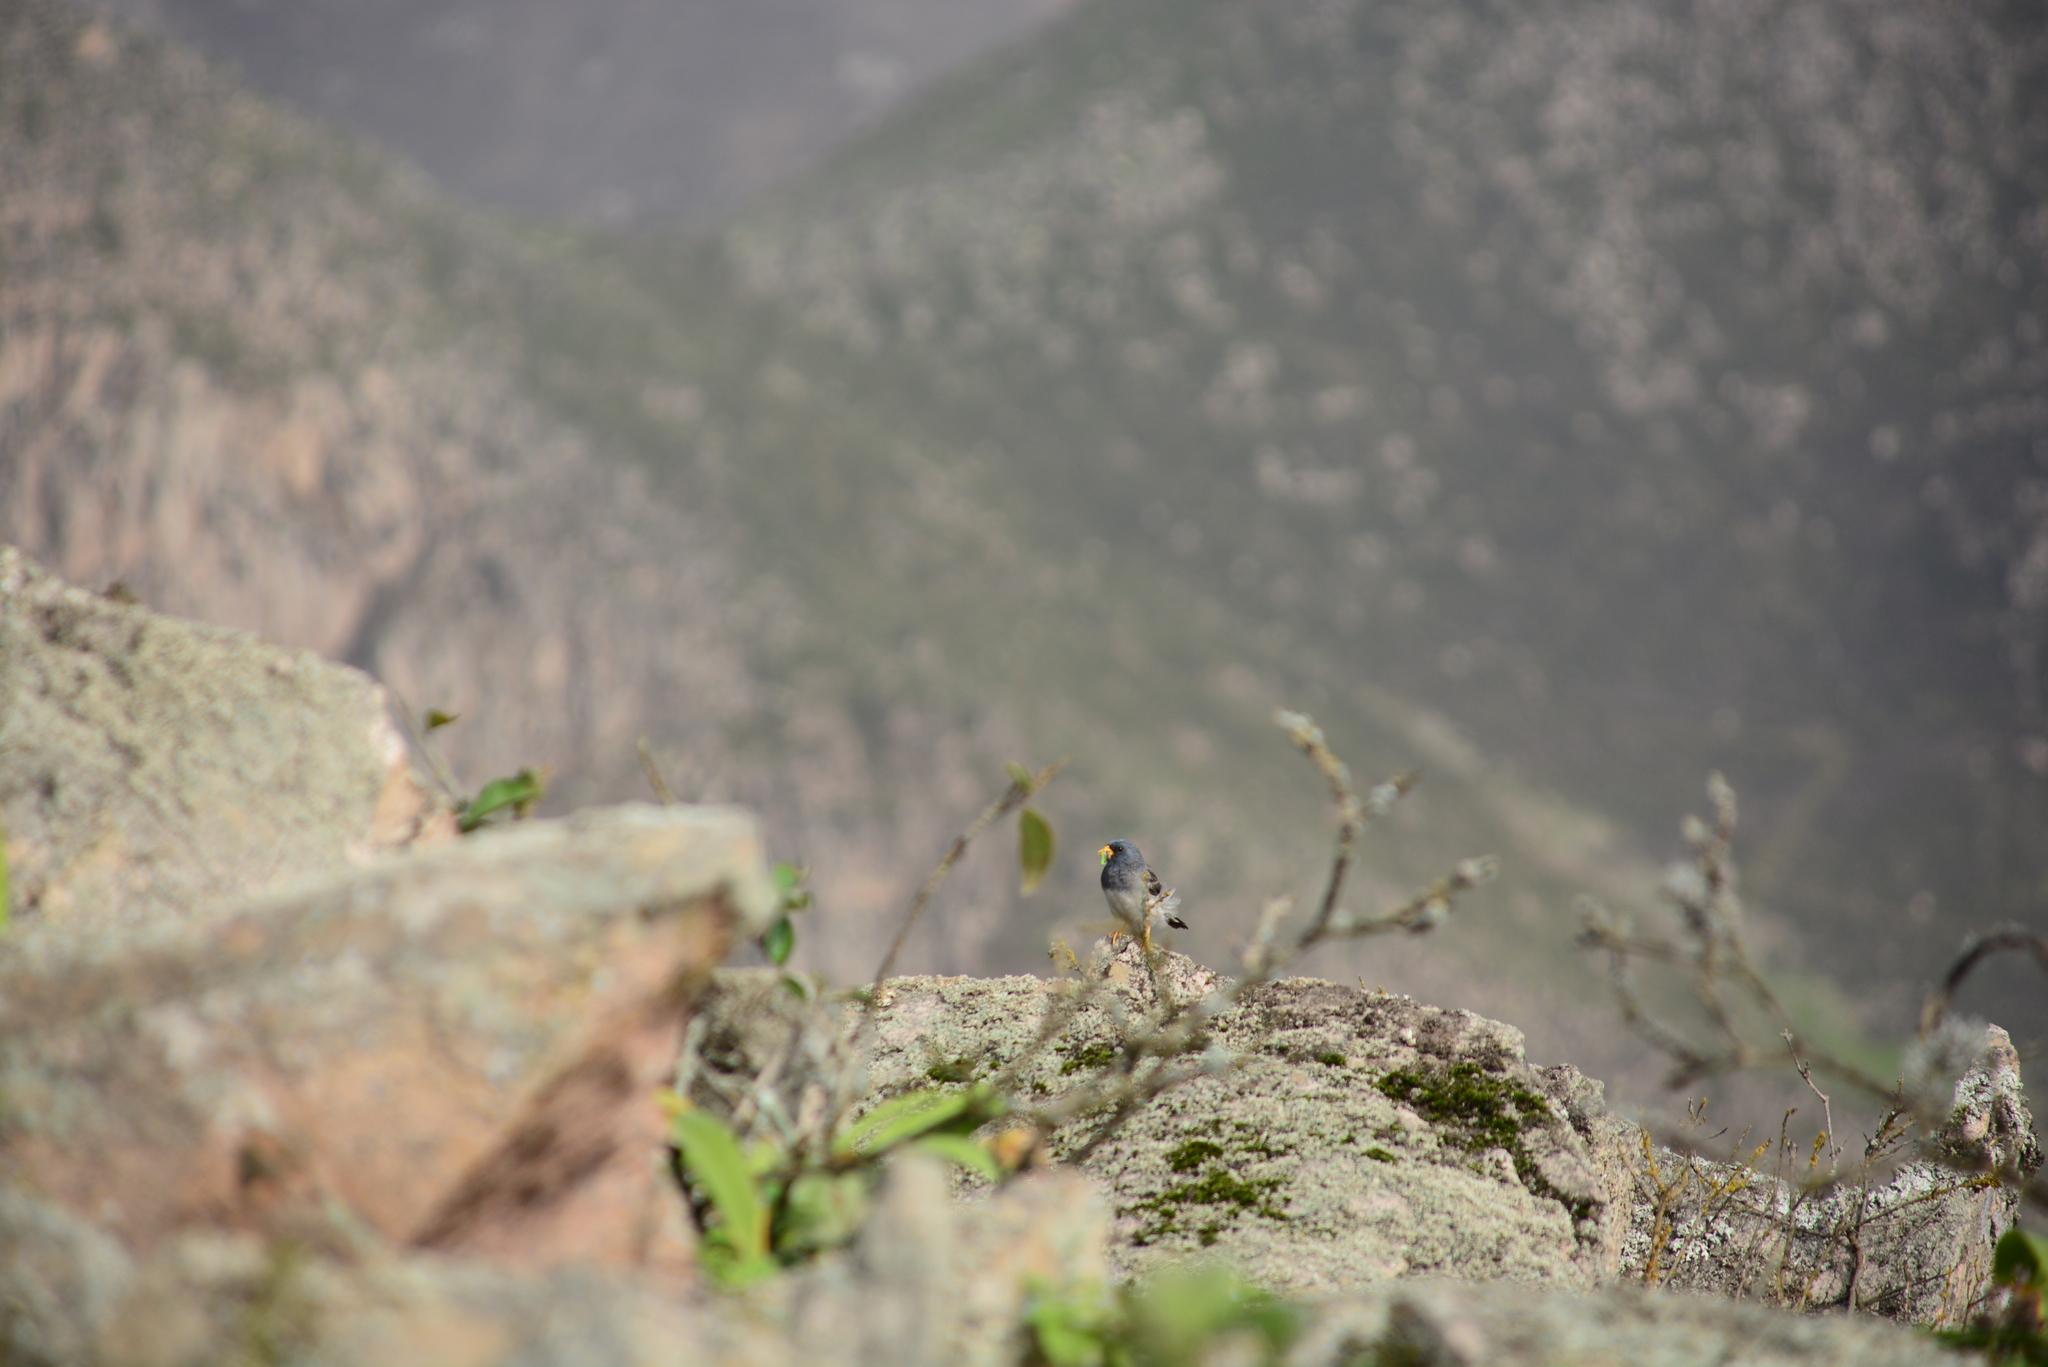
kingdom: Animalia
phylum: Chordata
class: Aves
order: Passeriformes
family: Thraupidae
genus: Porphyrospiza
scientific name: Porphyrospiza alaudina
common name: Band-tailed sierra finch
